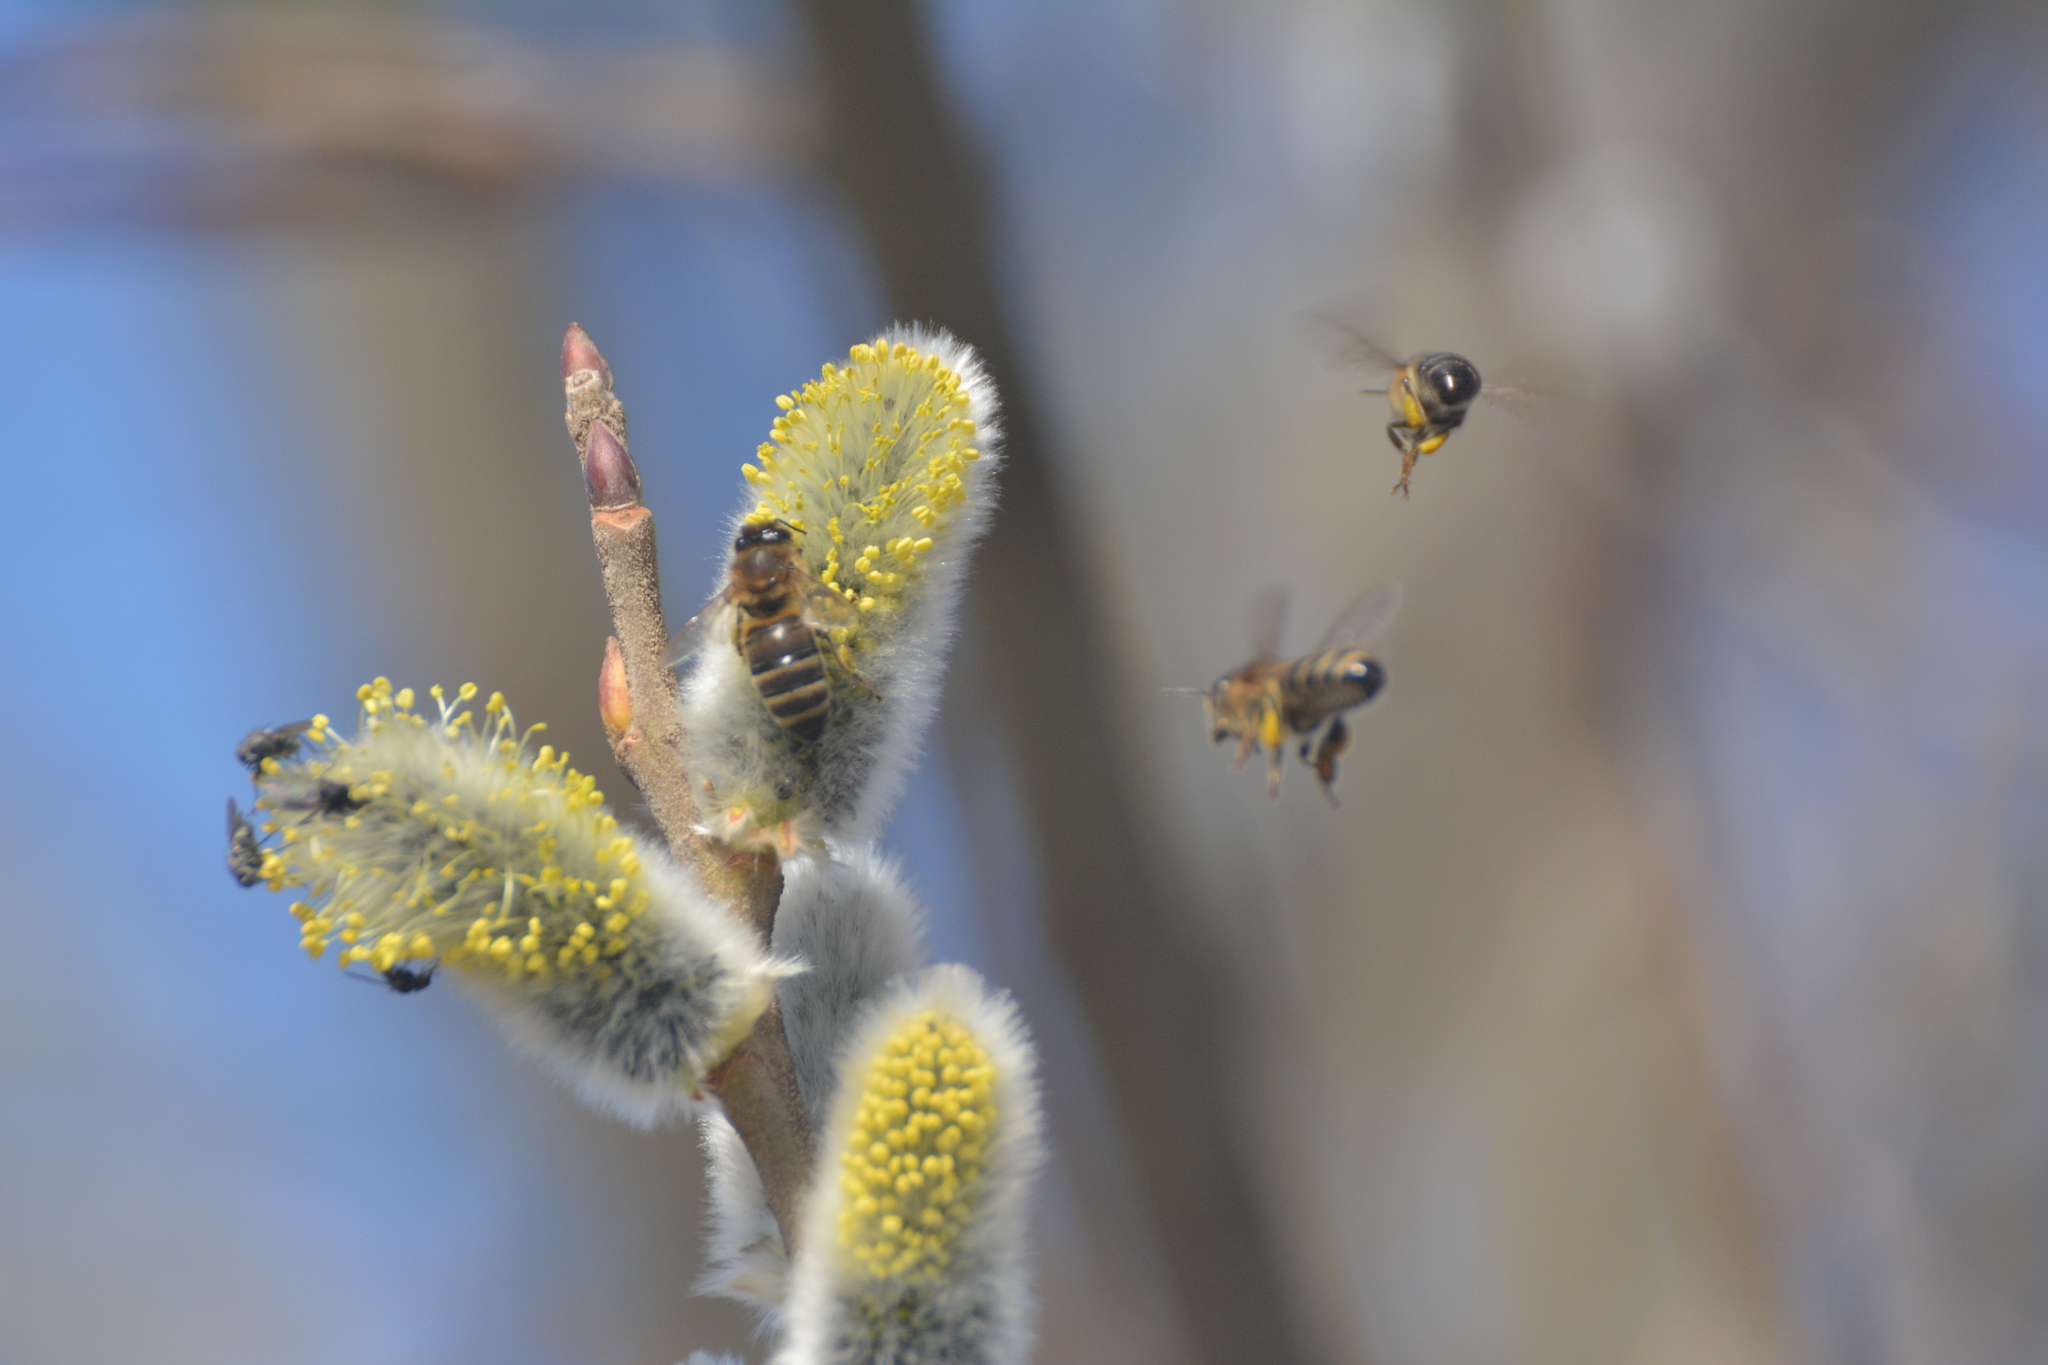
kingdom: Animalia
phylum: Arthropoda
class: Insecta
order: Hymenoptera
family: Apidae
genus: Apis
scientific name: Apis mellifera
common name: Honey bee
